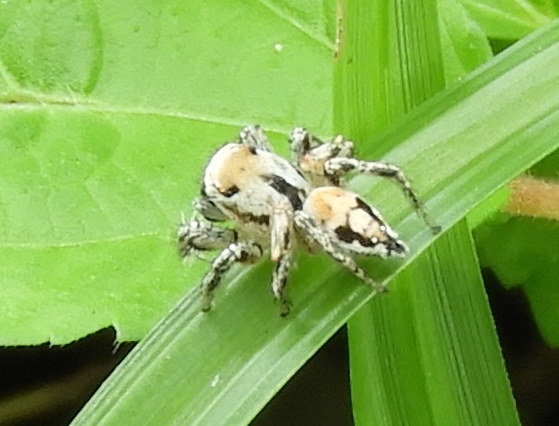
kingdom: Animalia
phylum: Arthropoda
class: Arachnida
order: Araneae
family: Salticidae
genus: Habronattus
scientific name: Habronattus aztecanus
